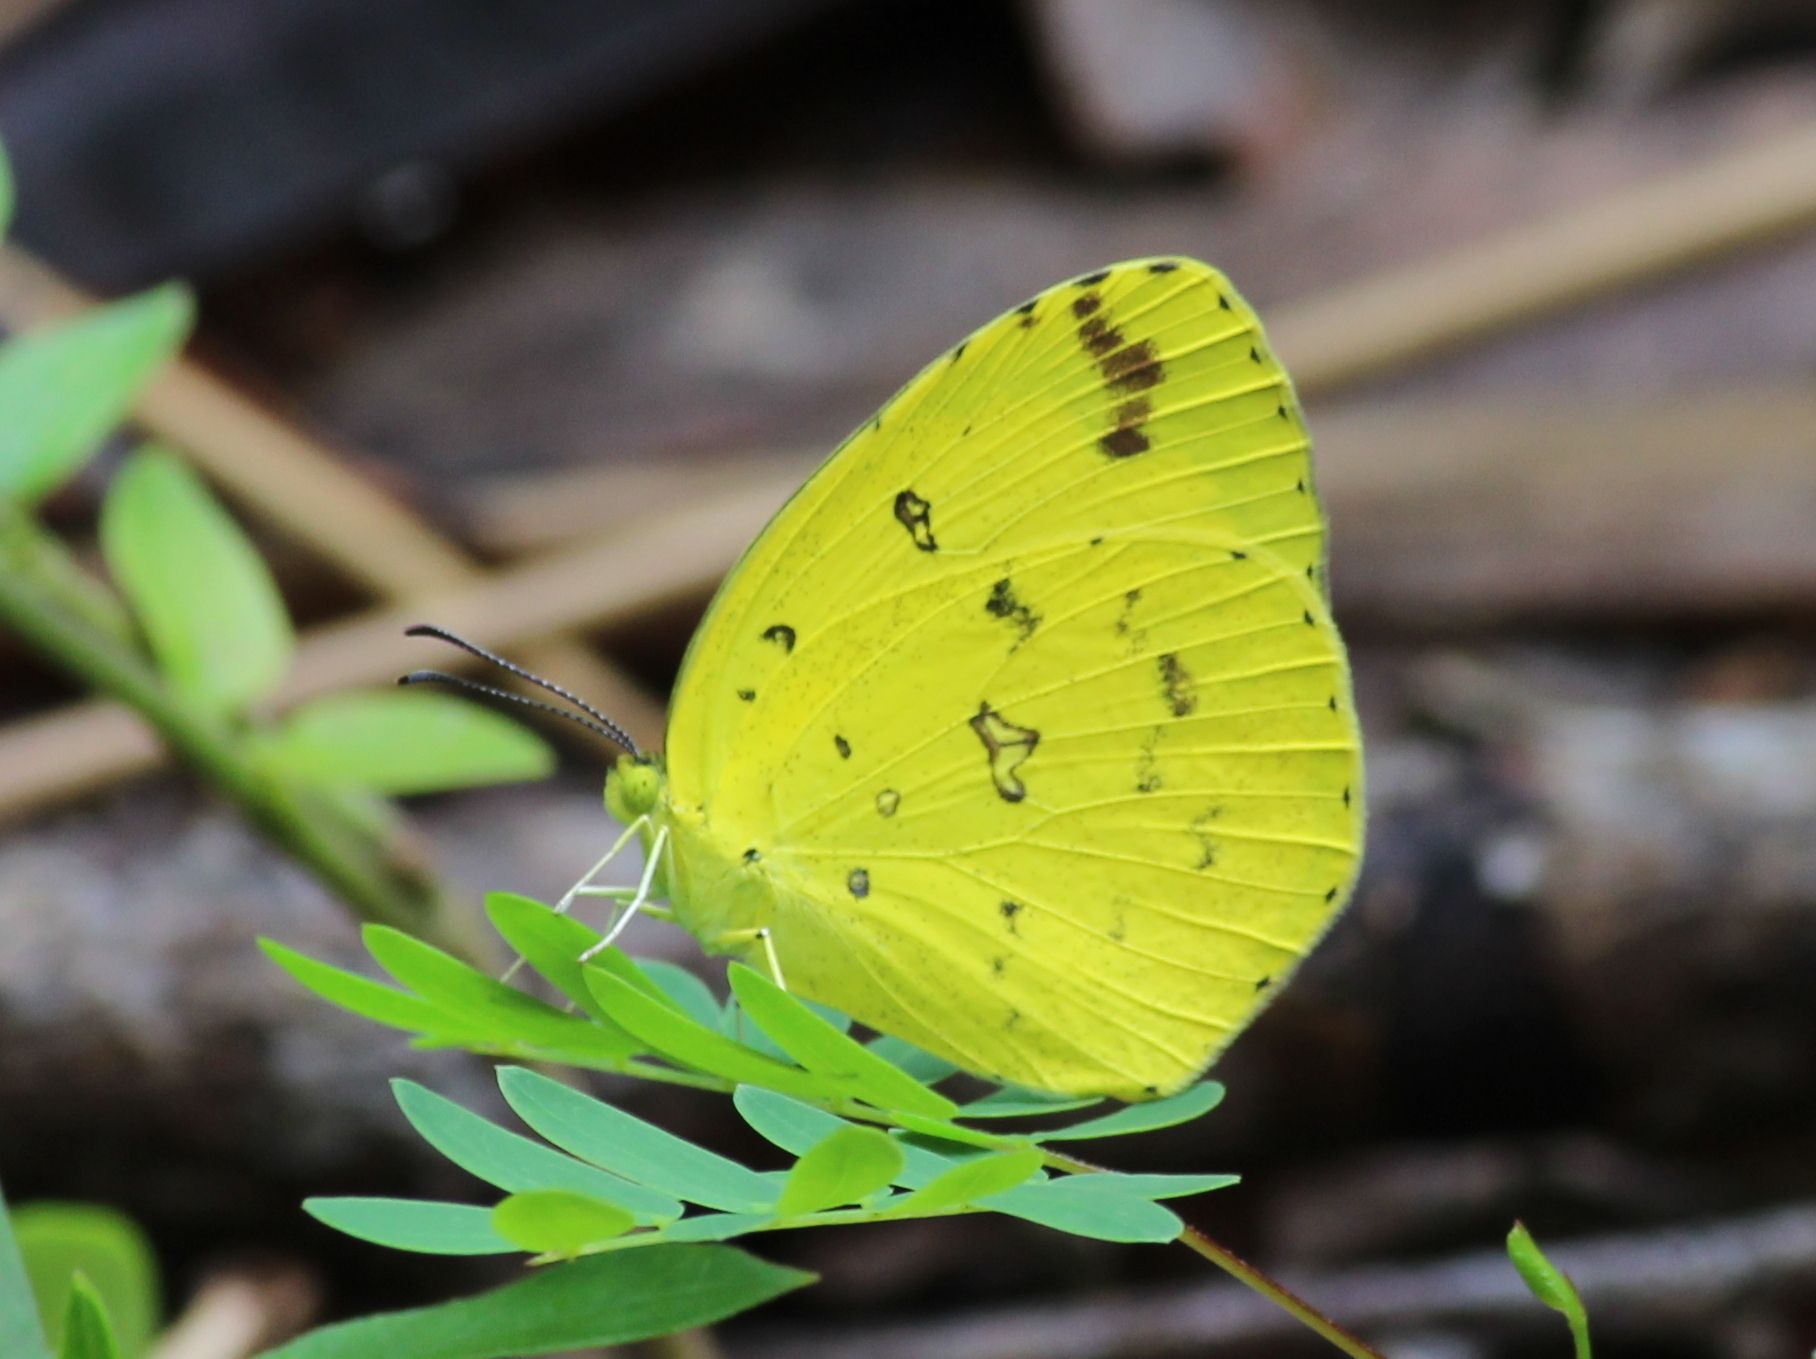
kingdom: Animalia
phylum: Arthropoda
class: Insecta
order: Lepidoptera
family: Pieridae
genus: Eurema
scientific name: Eurema hecabe
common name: Pale grass yellow
